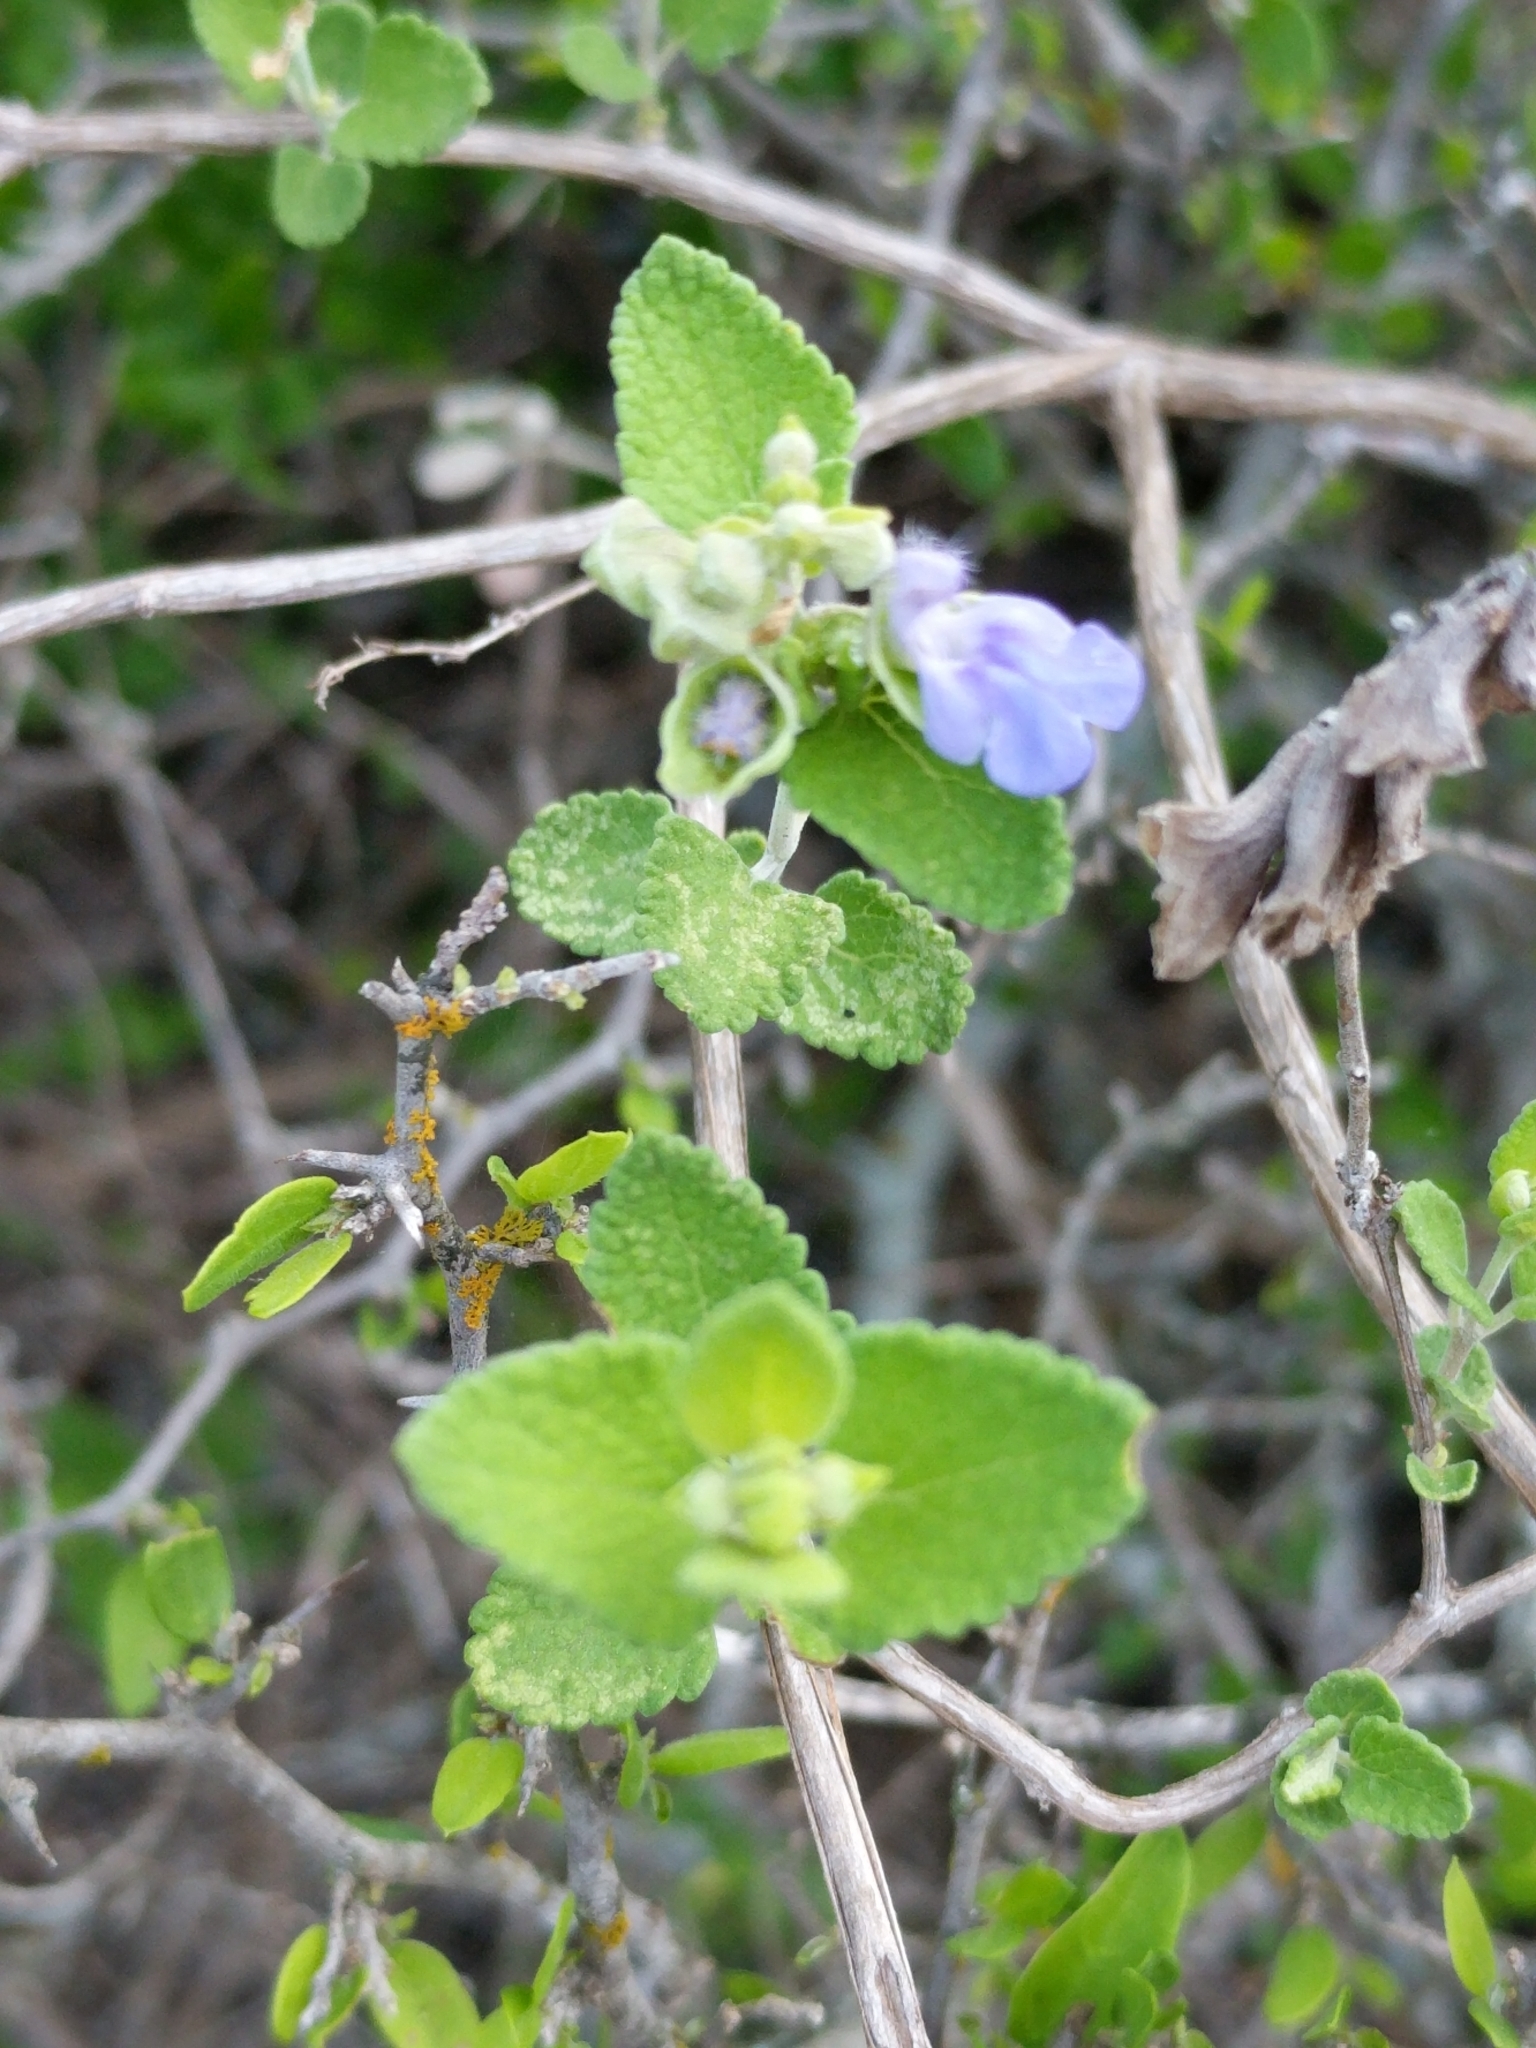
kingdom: Plantae
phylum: Tracheophyta
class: Magnoliopsida
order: Lamiales
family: Lamiaceae
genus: Salvia
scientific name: Salvia ballotiflora
